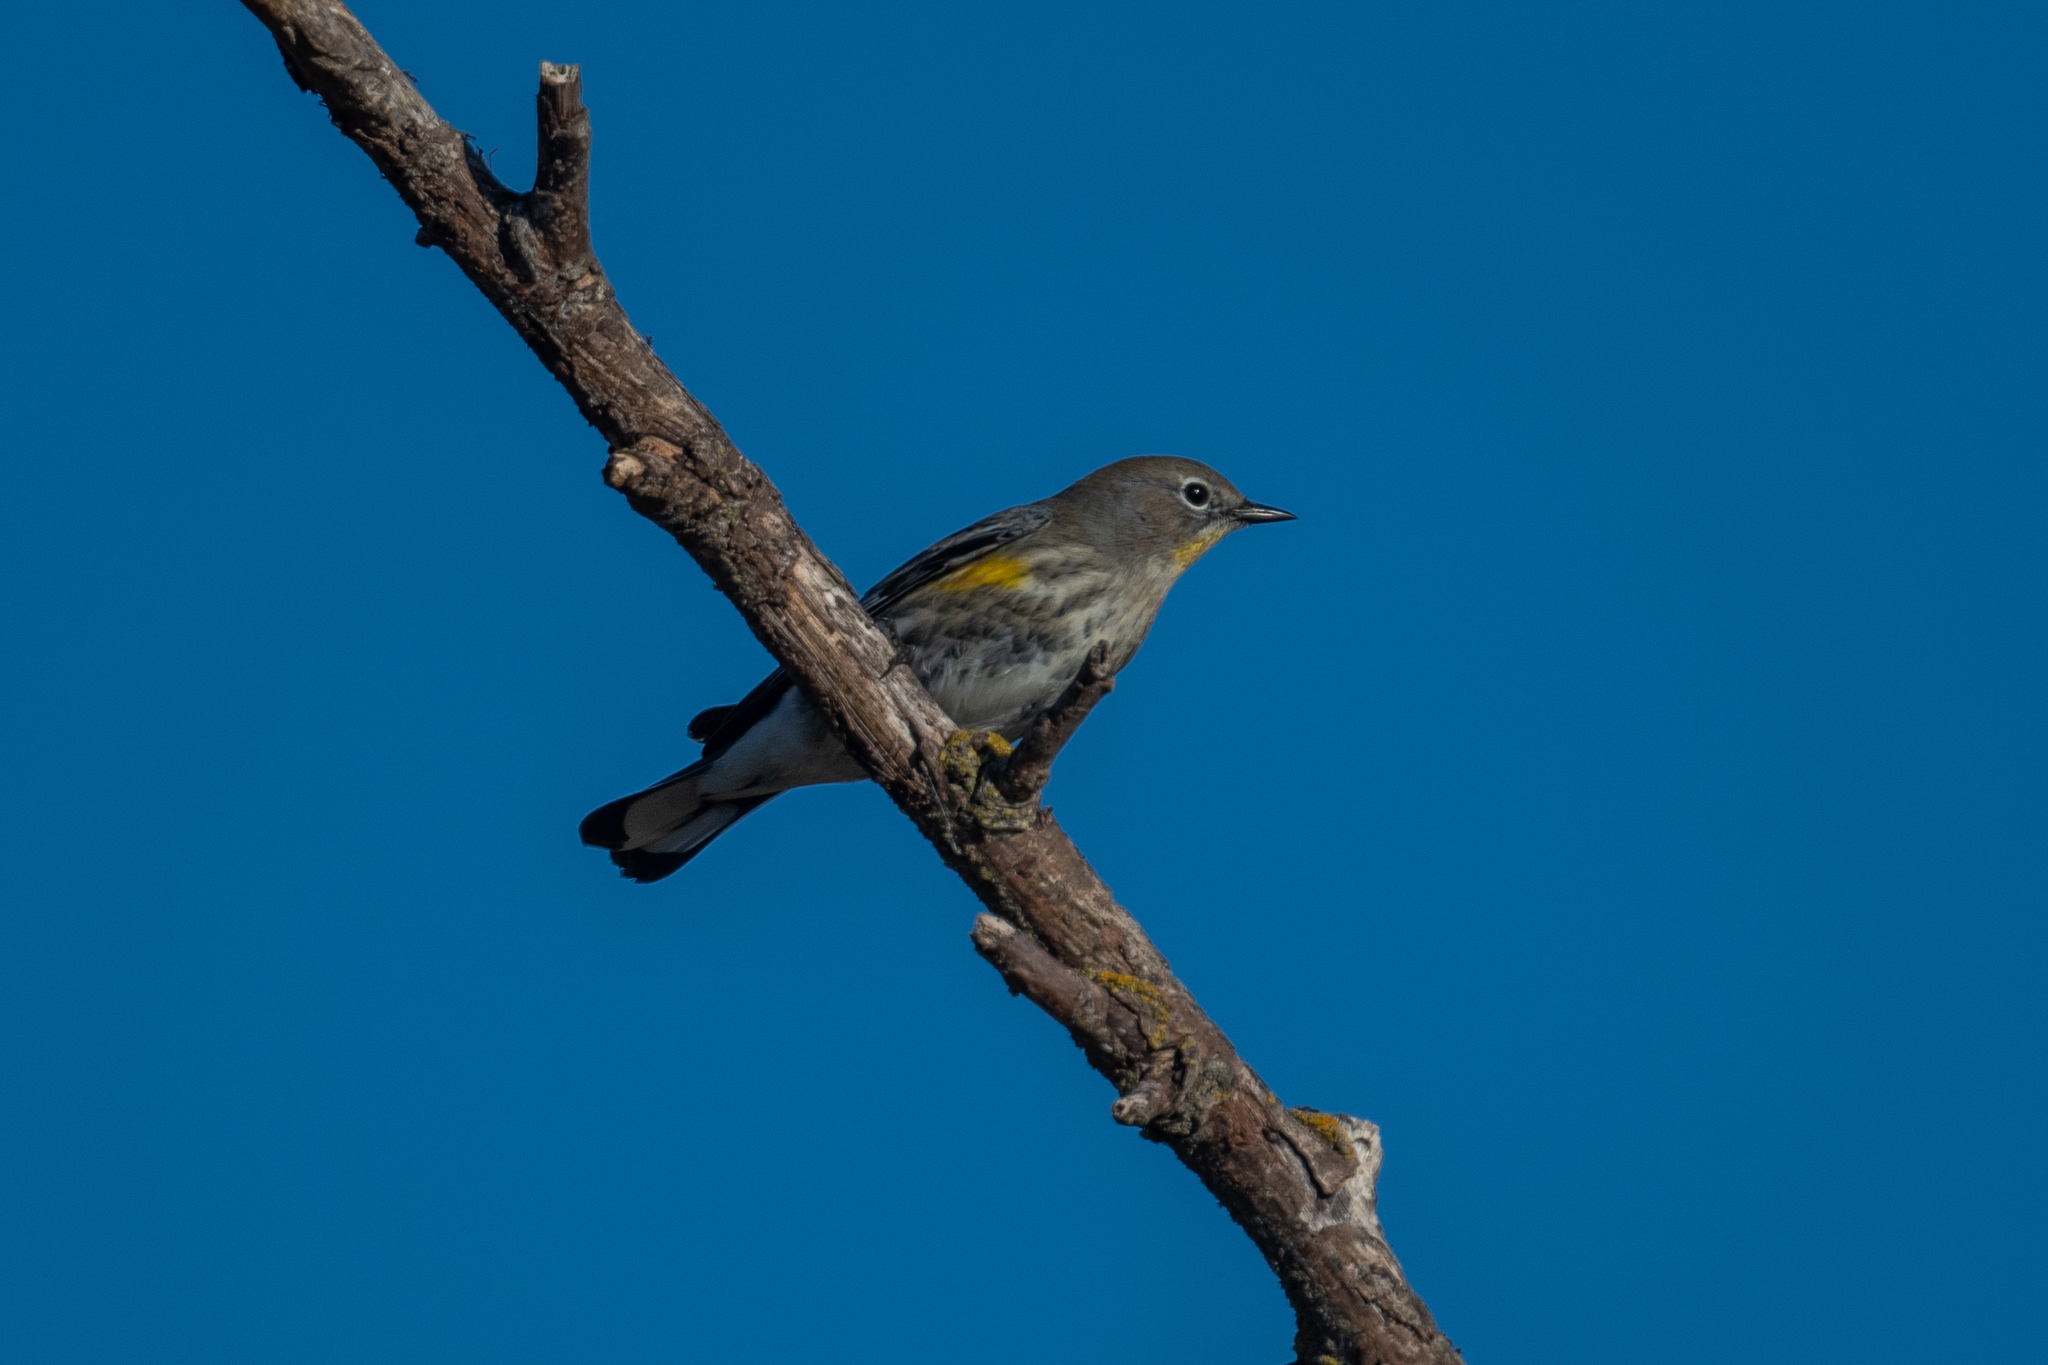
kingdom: Animalia
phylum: Chordata
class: Aves
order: Passeriformes
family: Parulidae
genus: Setophaga
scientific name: Setophaga coronata
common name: Myrtle warbler
